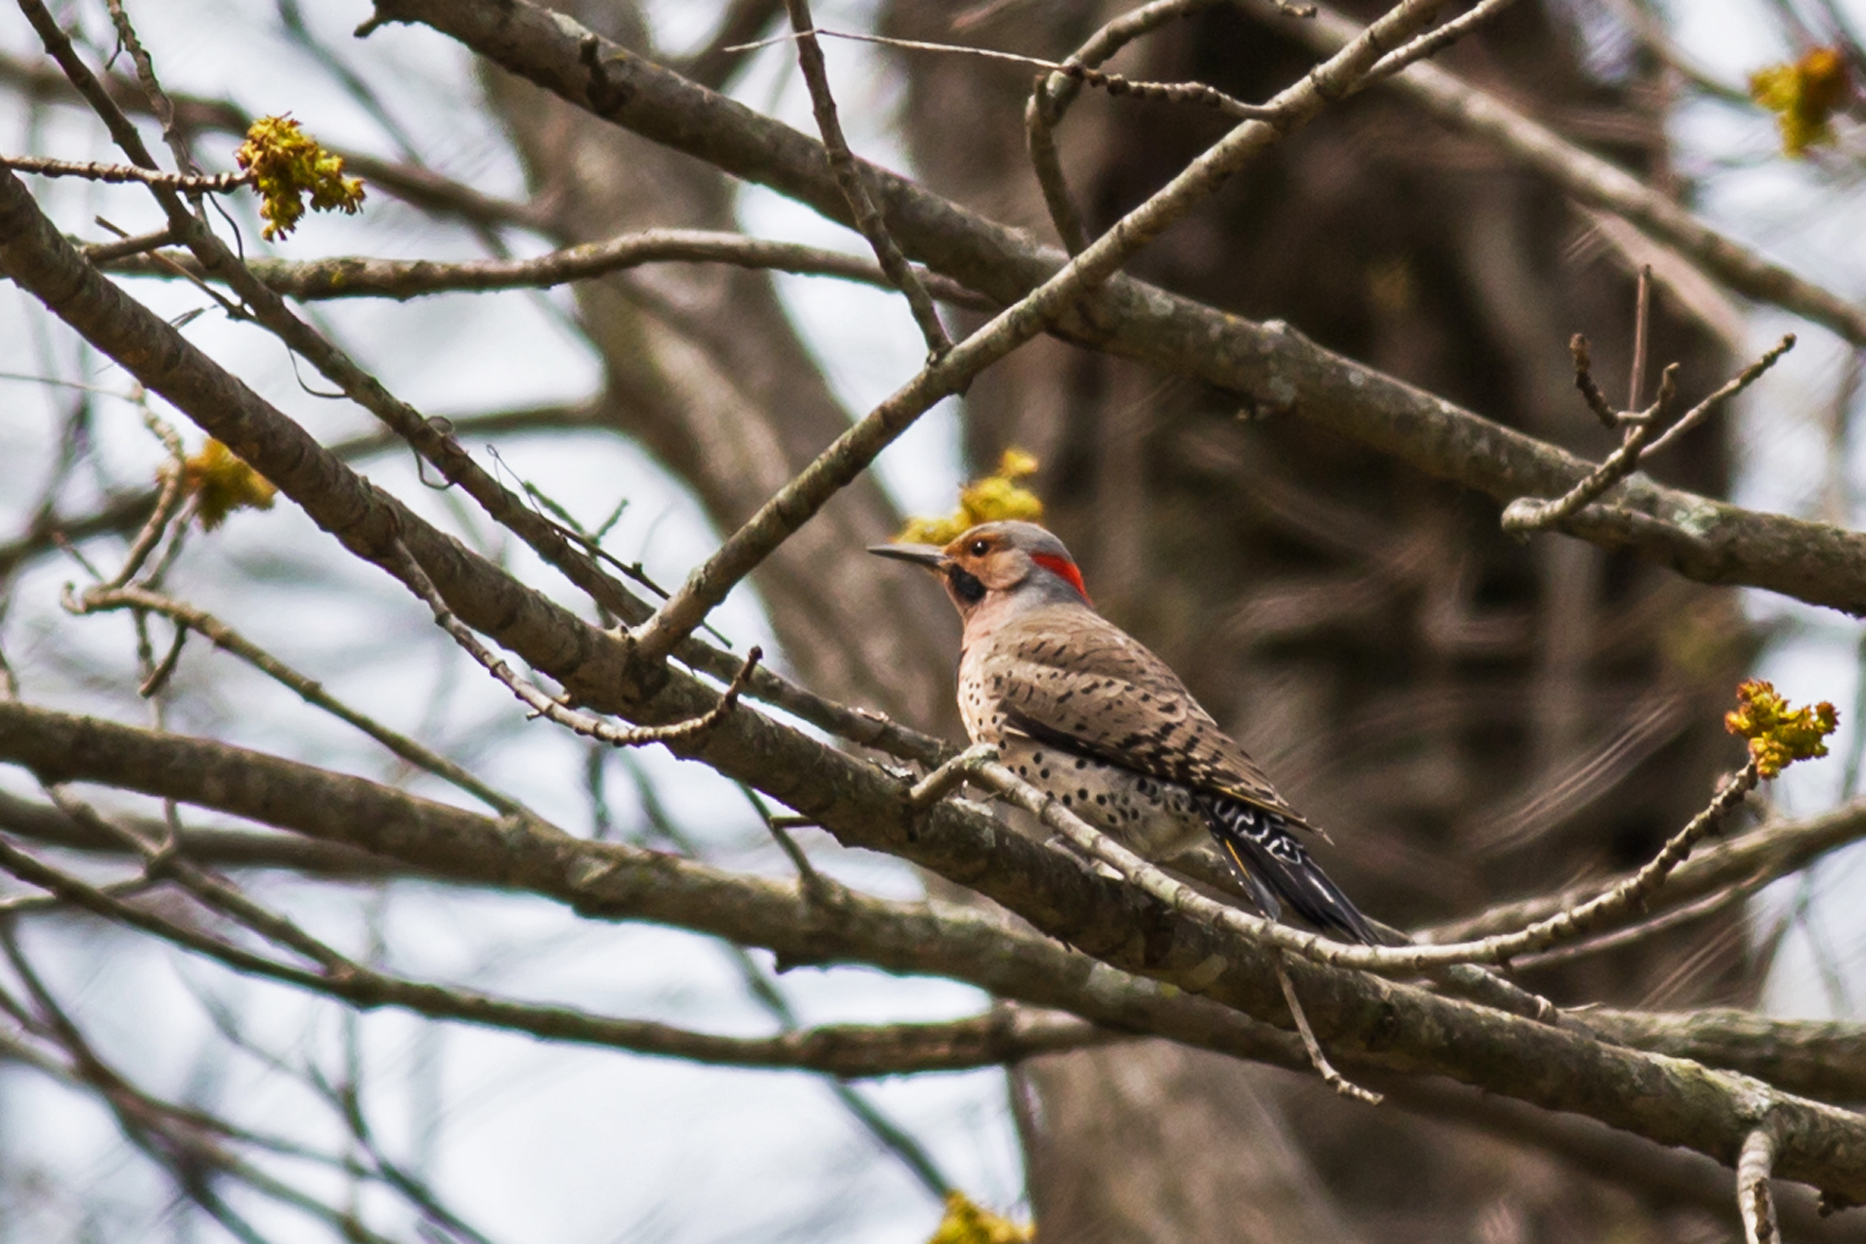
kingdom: Animalia
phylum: Chordata
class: Aves
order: Piciformes
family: Picidae
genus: Colaptes
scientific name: Colaptes auratus
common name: Northern flicker
